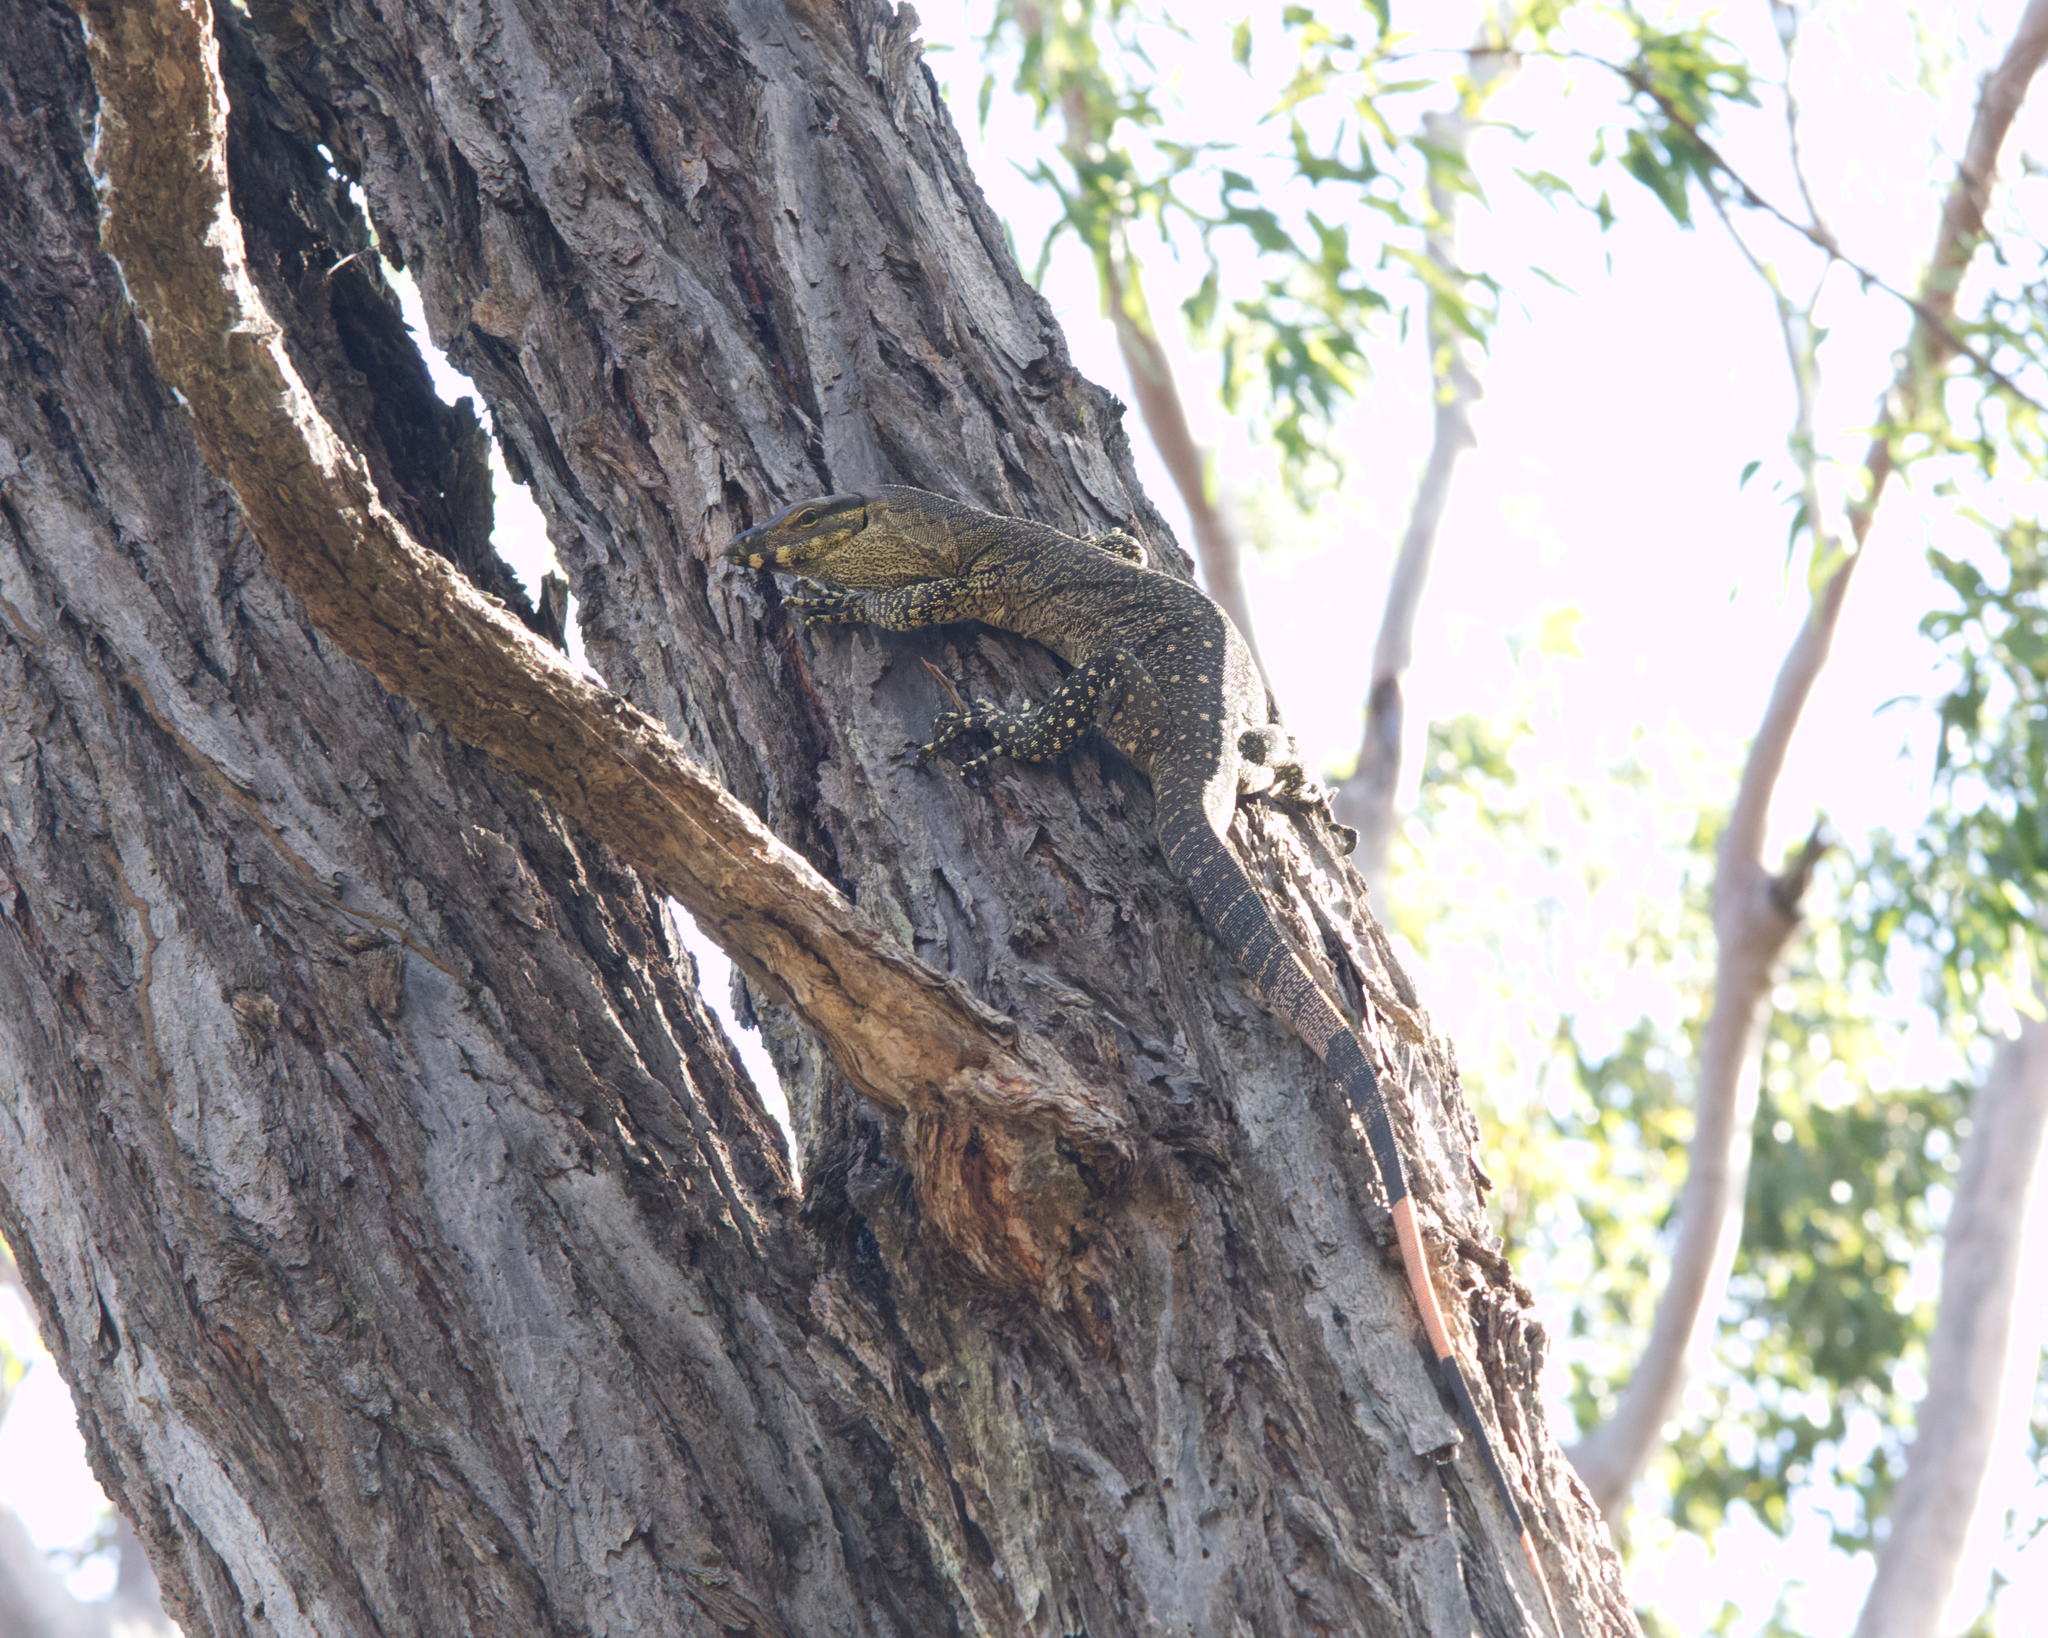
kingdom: Animalia
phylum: Chordata
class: Squamata
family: Varanidae
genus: Varanus
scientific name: Varanus varius
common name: Lace monitor
